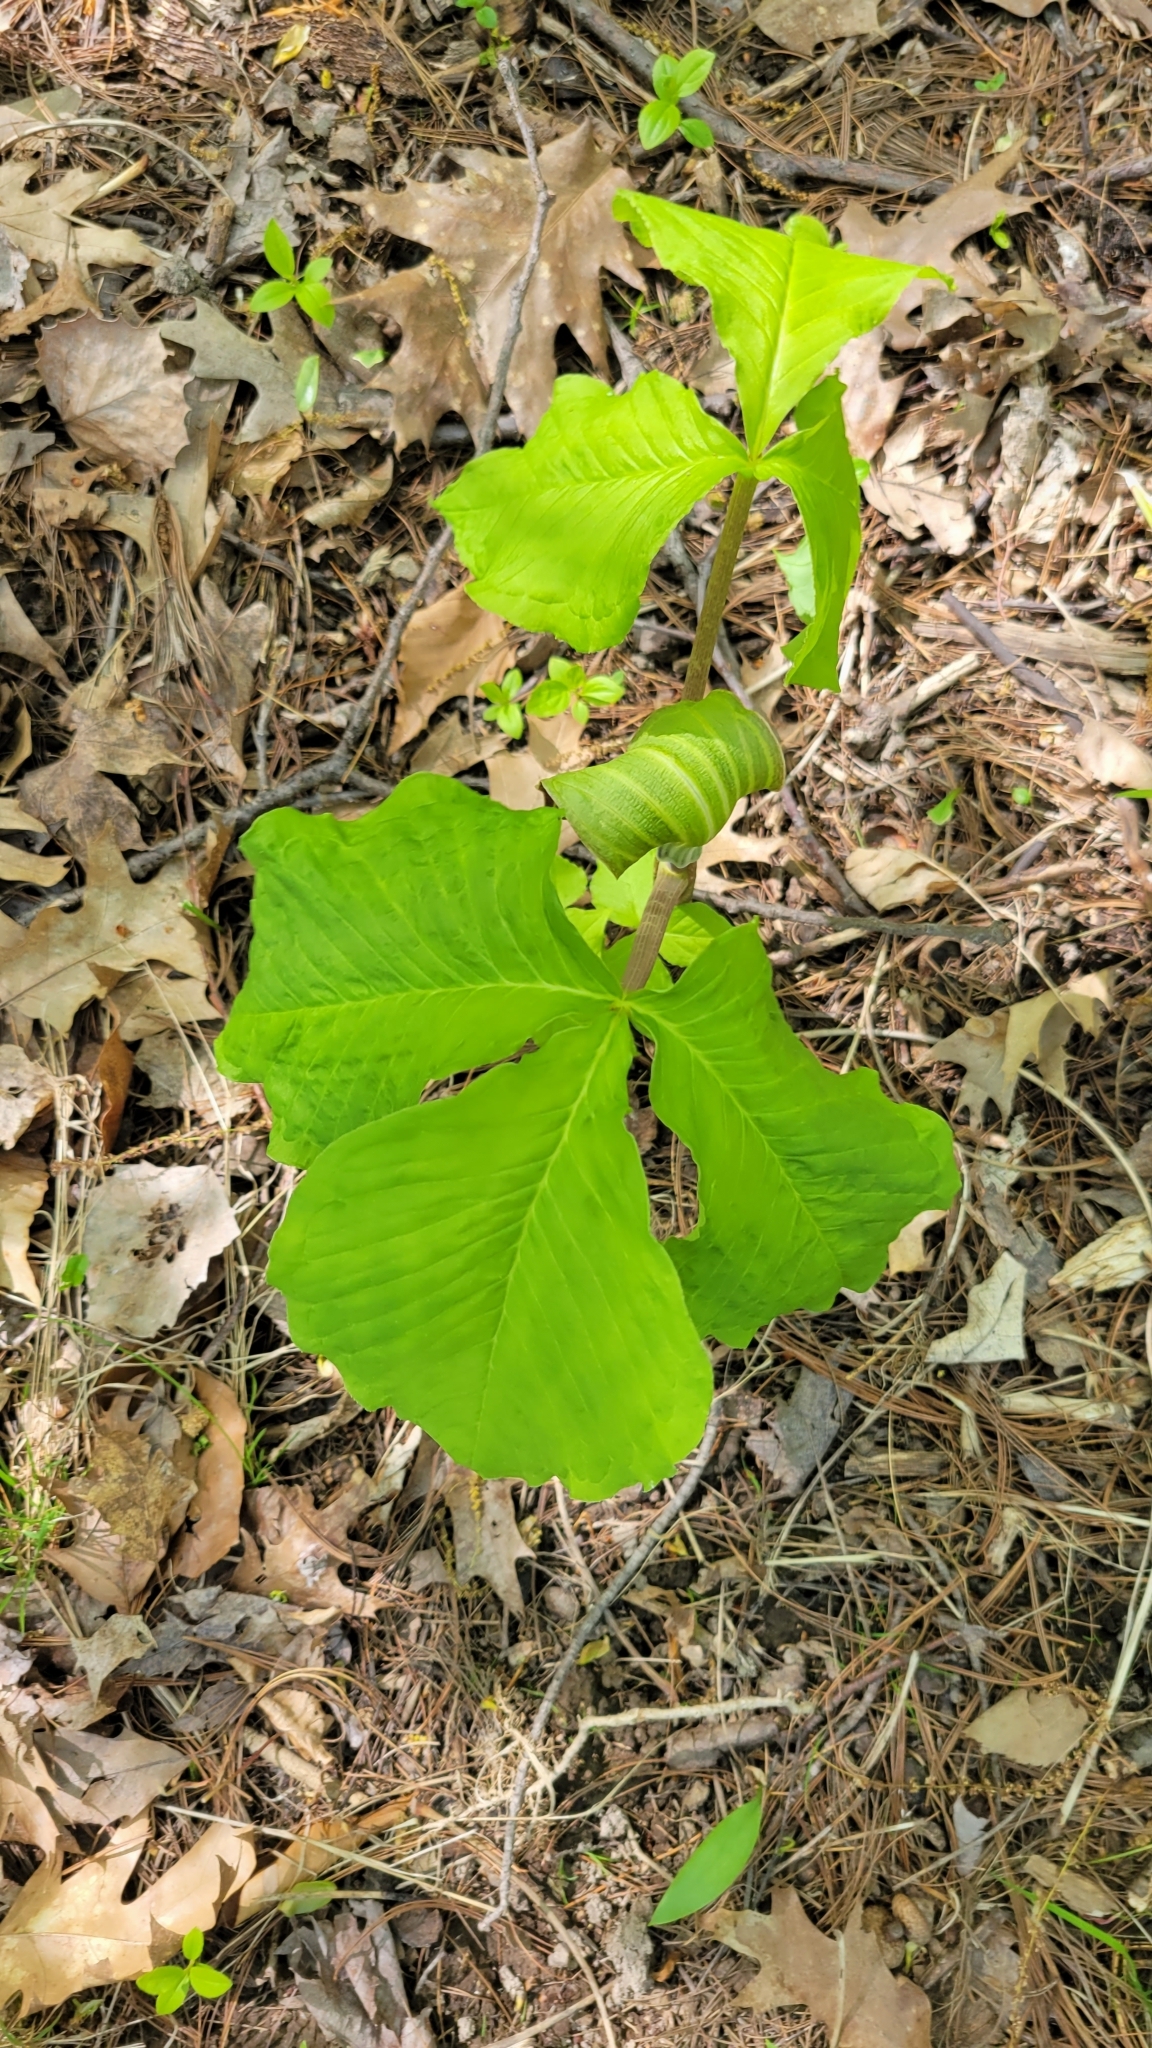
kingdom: Plantae
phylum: Tracheophyta
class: Liliopsida
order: Alismatales
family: Araceae
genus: Arisaema
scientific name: Arisaema triphyllum
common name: Jack-in-the-pulpit
